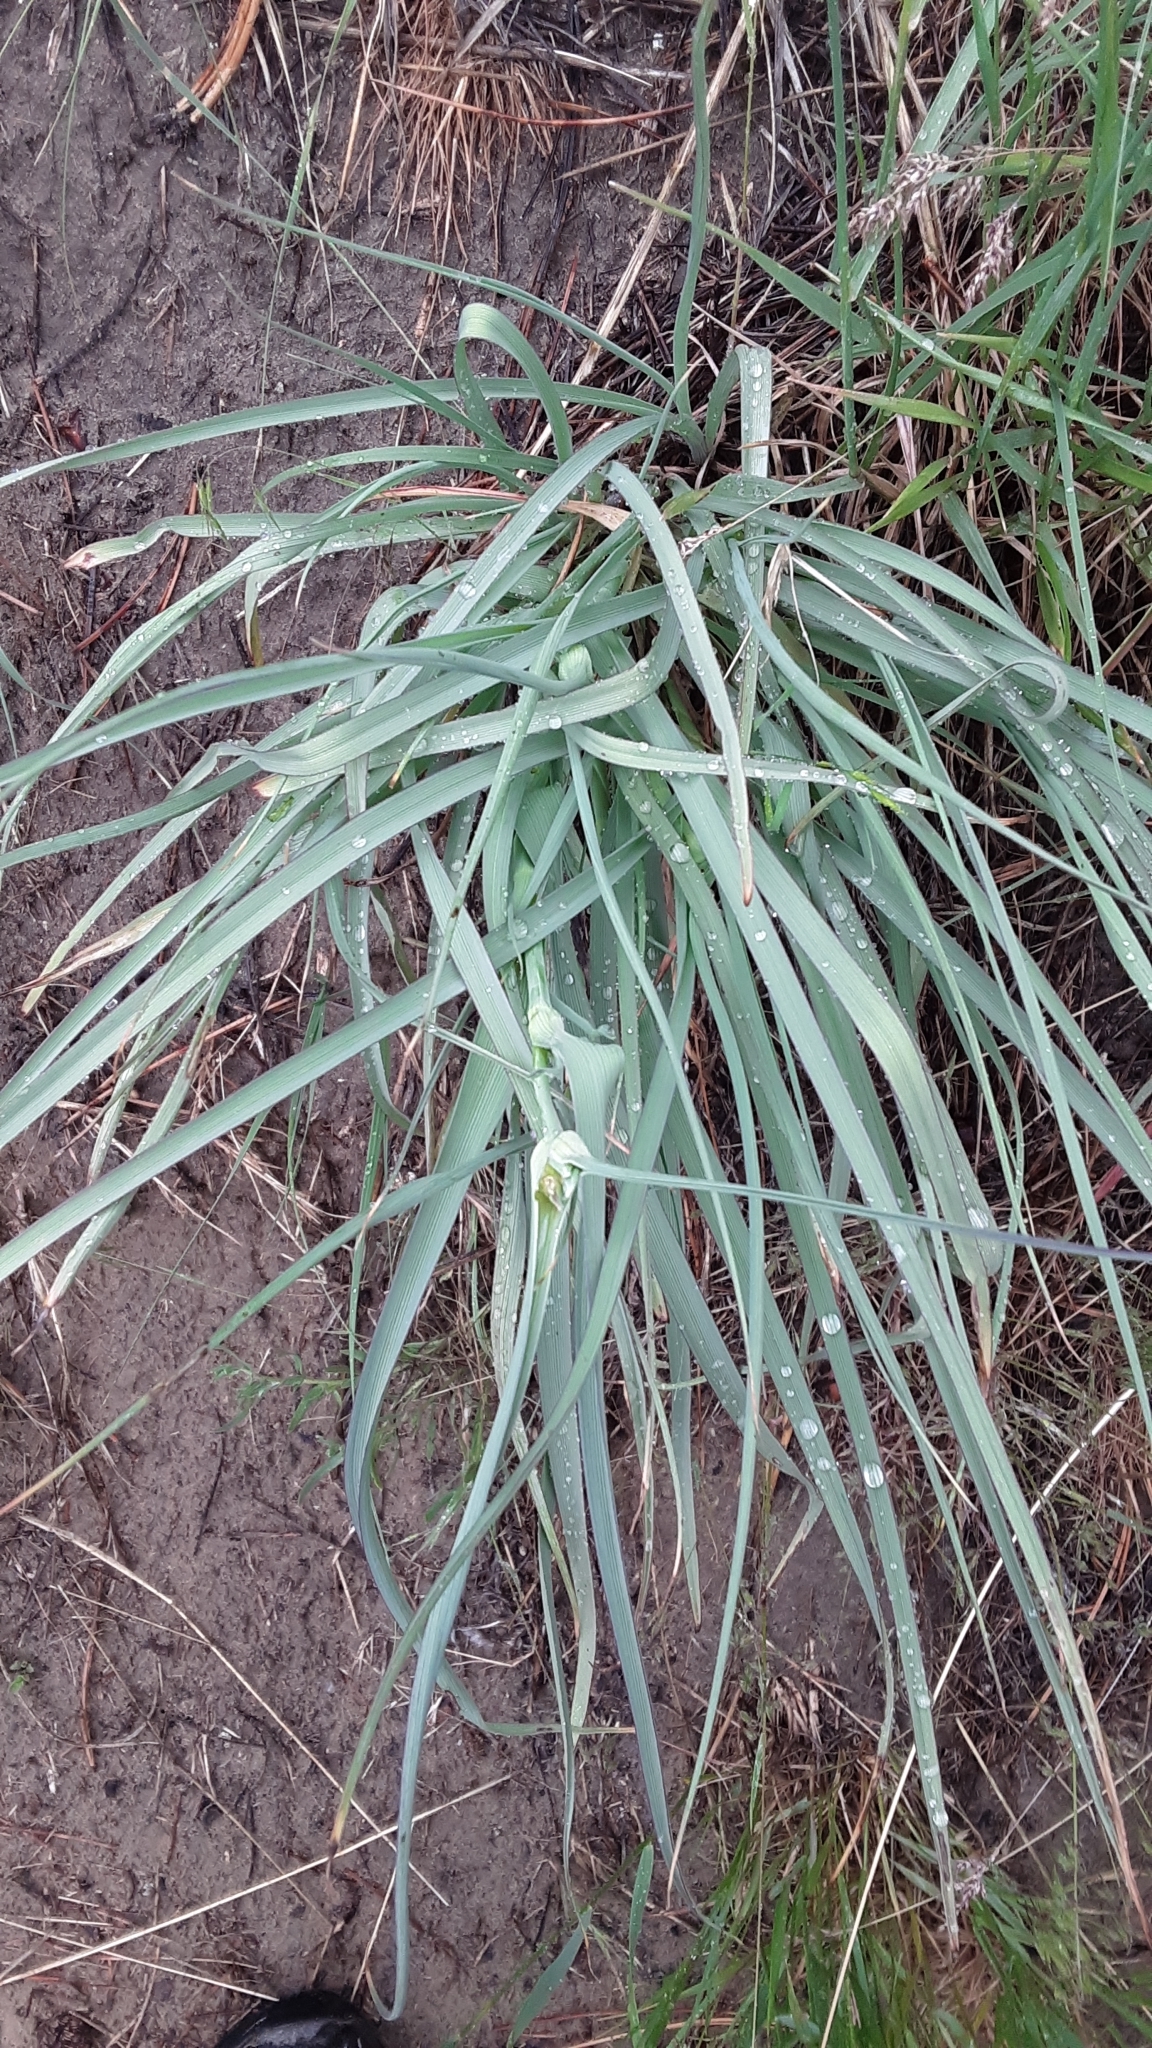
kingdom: Plantae
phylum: Tracheophyta
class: Liliopsida
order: Commelinales
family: Commelinaceae
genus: Tradescantia
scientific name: Tradescantia occidentalis
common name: Prairie spiderwort
